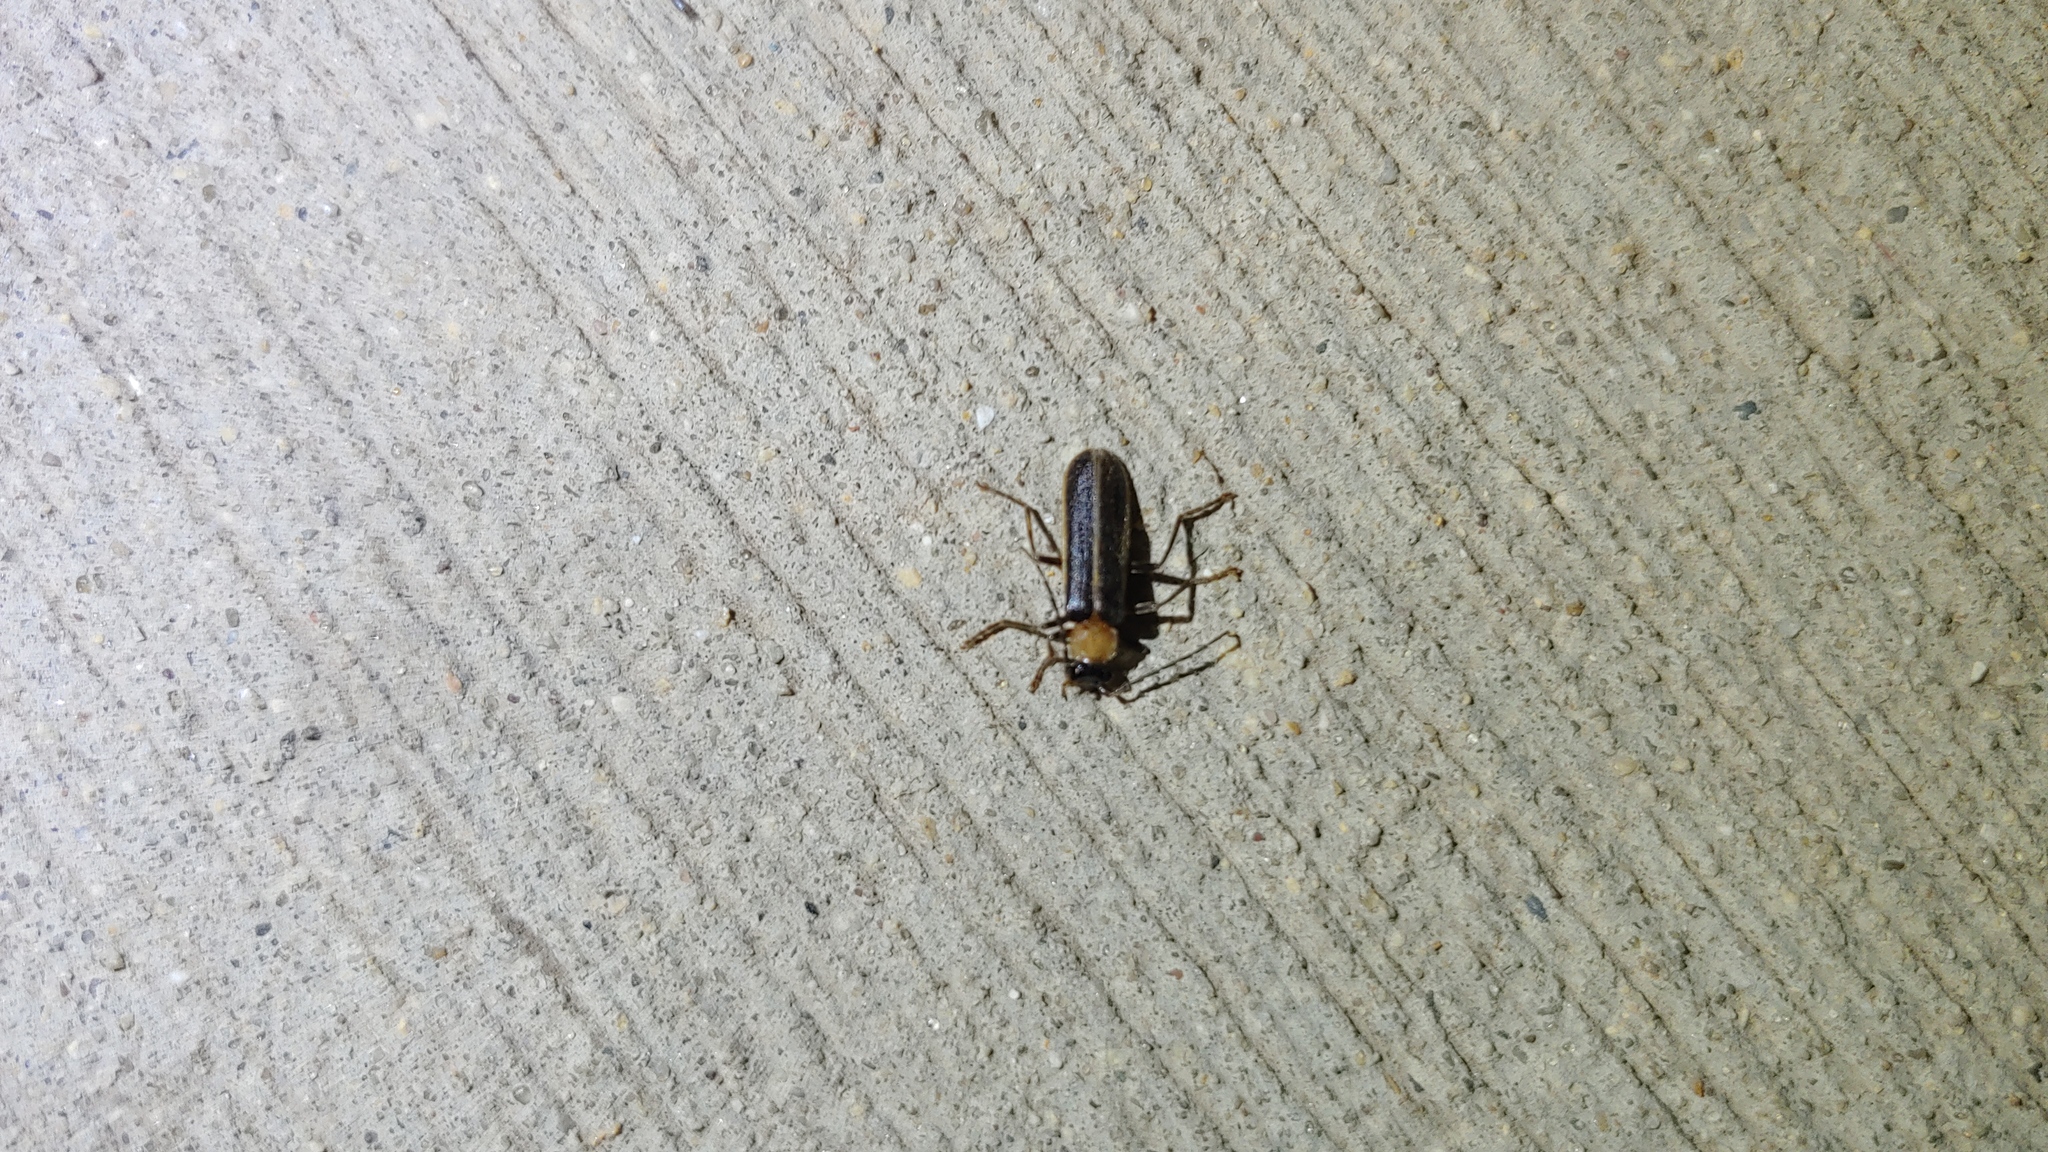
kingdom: Animalia
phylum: Arthropoda
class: Insecta
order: Coleoptera
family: Cantharidae
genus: Podabrus
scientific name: Podabrus flavicollis
